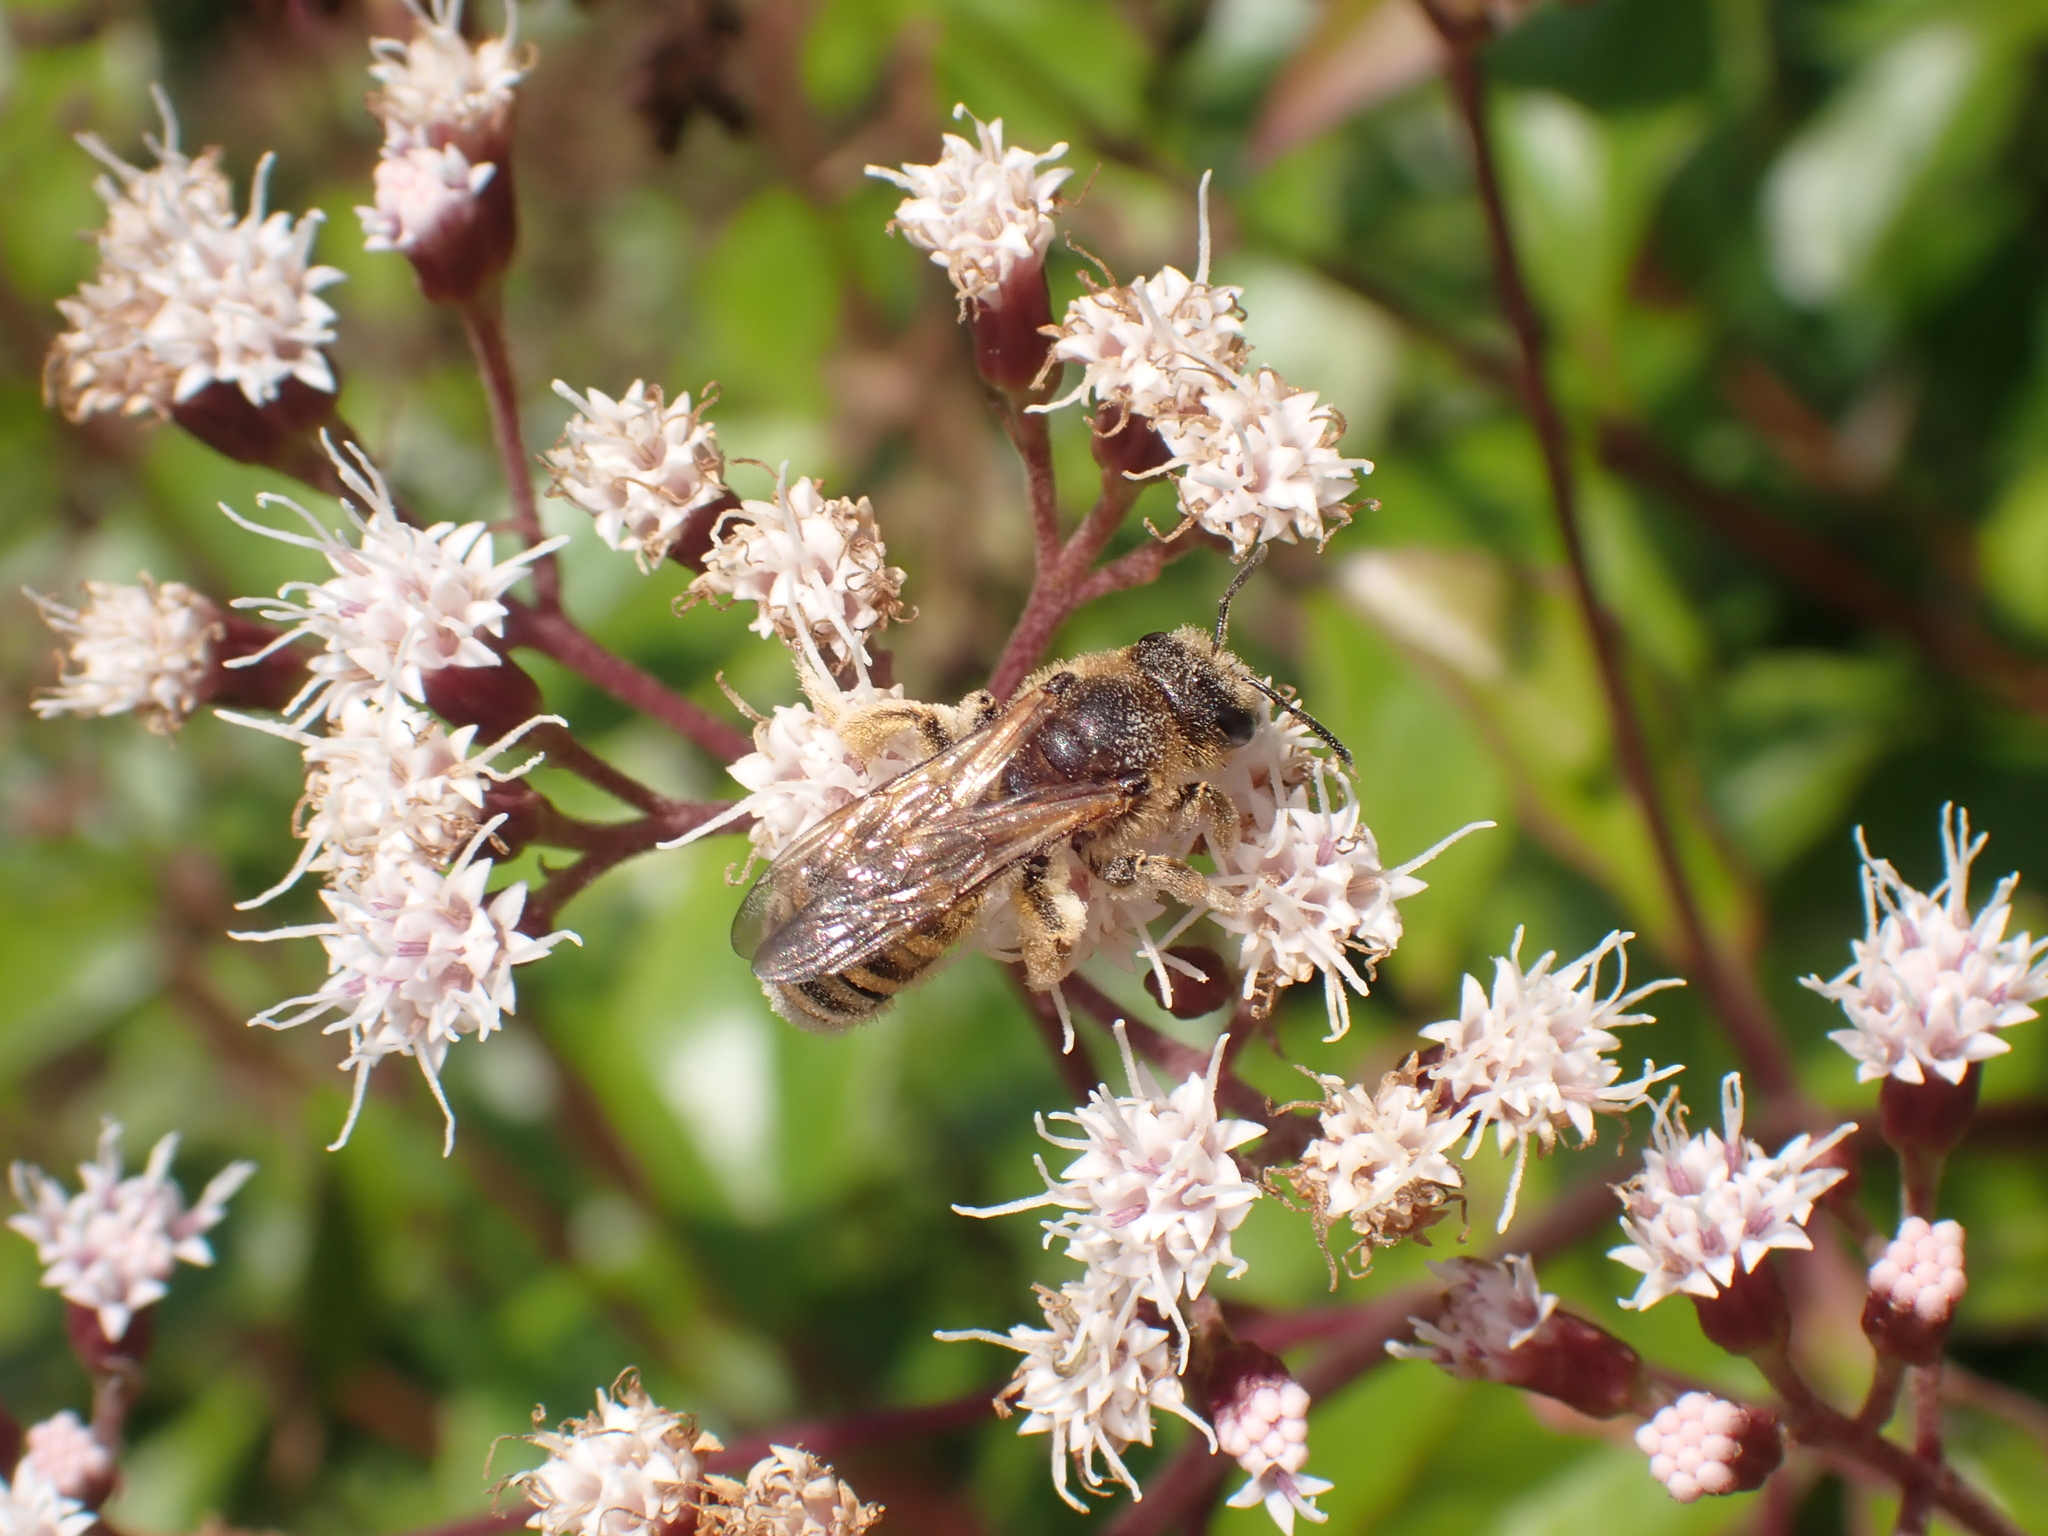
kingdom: Animalia
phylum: Arthropoda
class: Insecta
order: Hymenoptera
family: Halictidae
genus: Halictus
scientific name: Halictus scabiosae
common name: Great banded furrow bee
